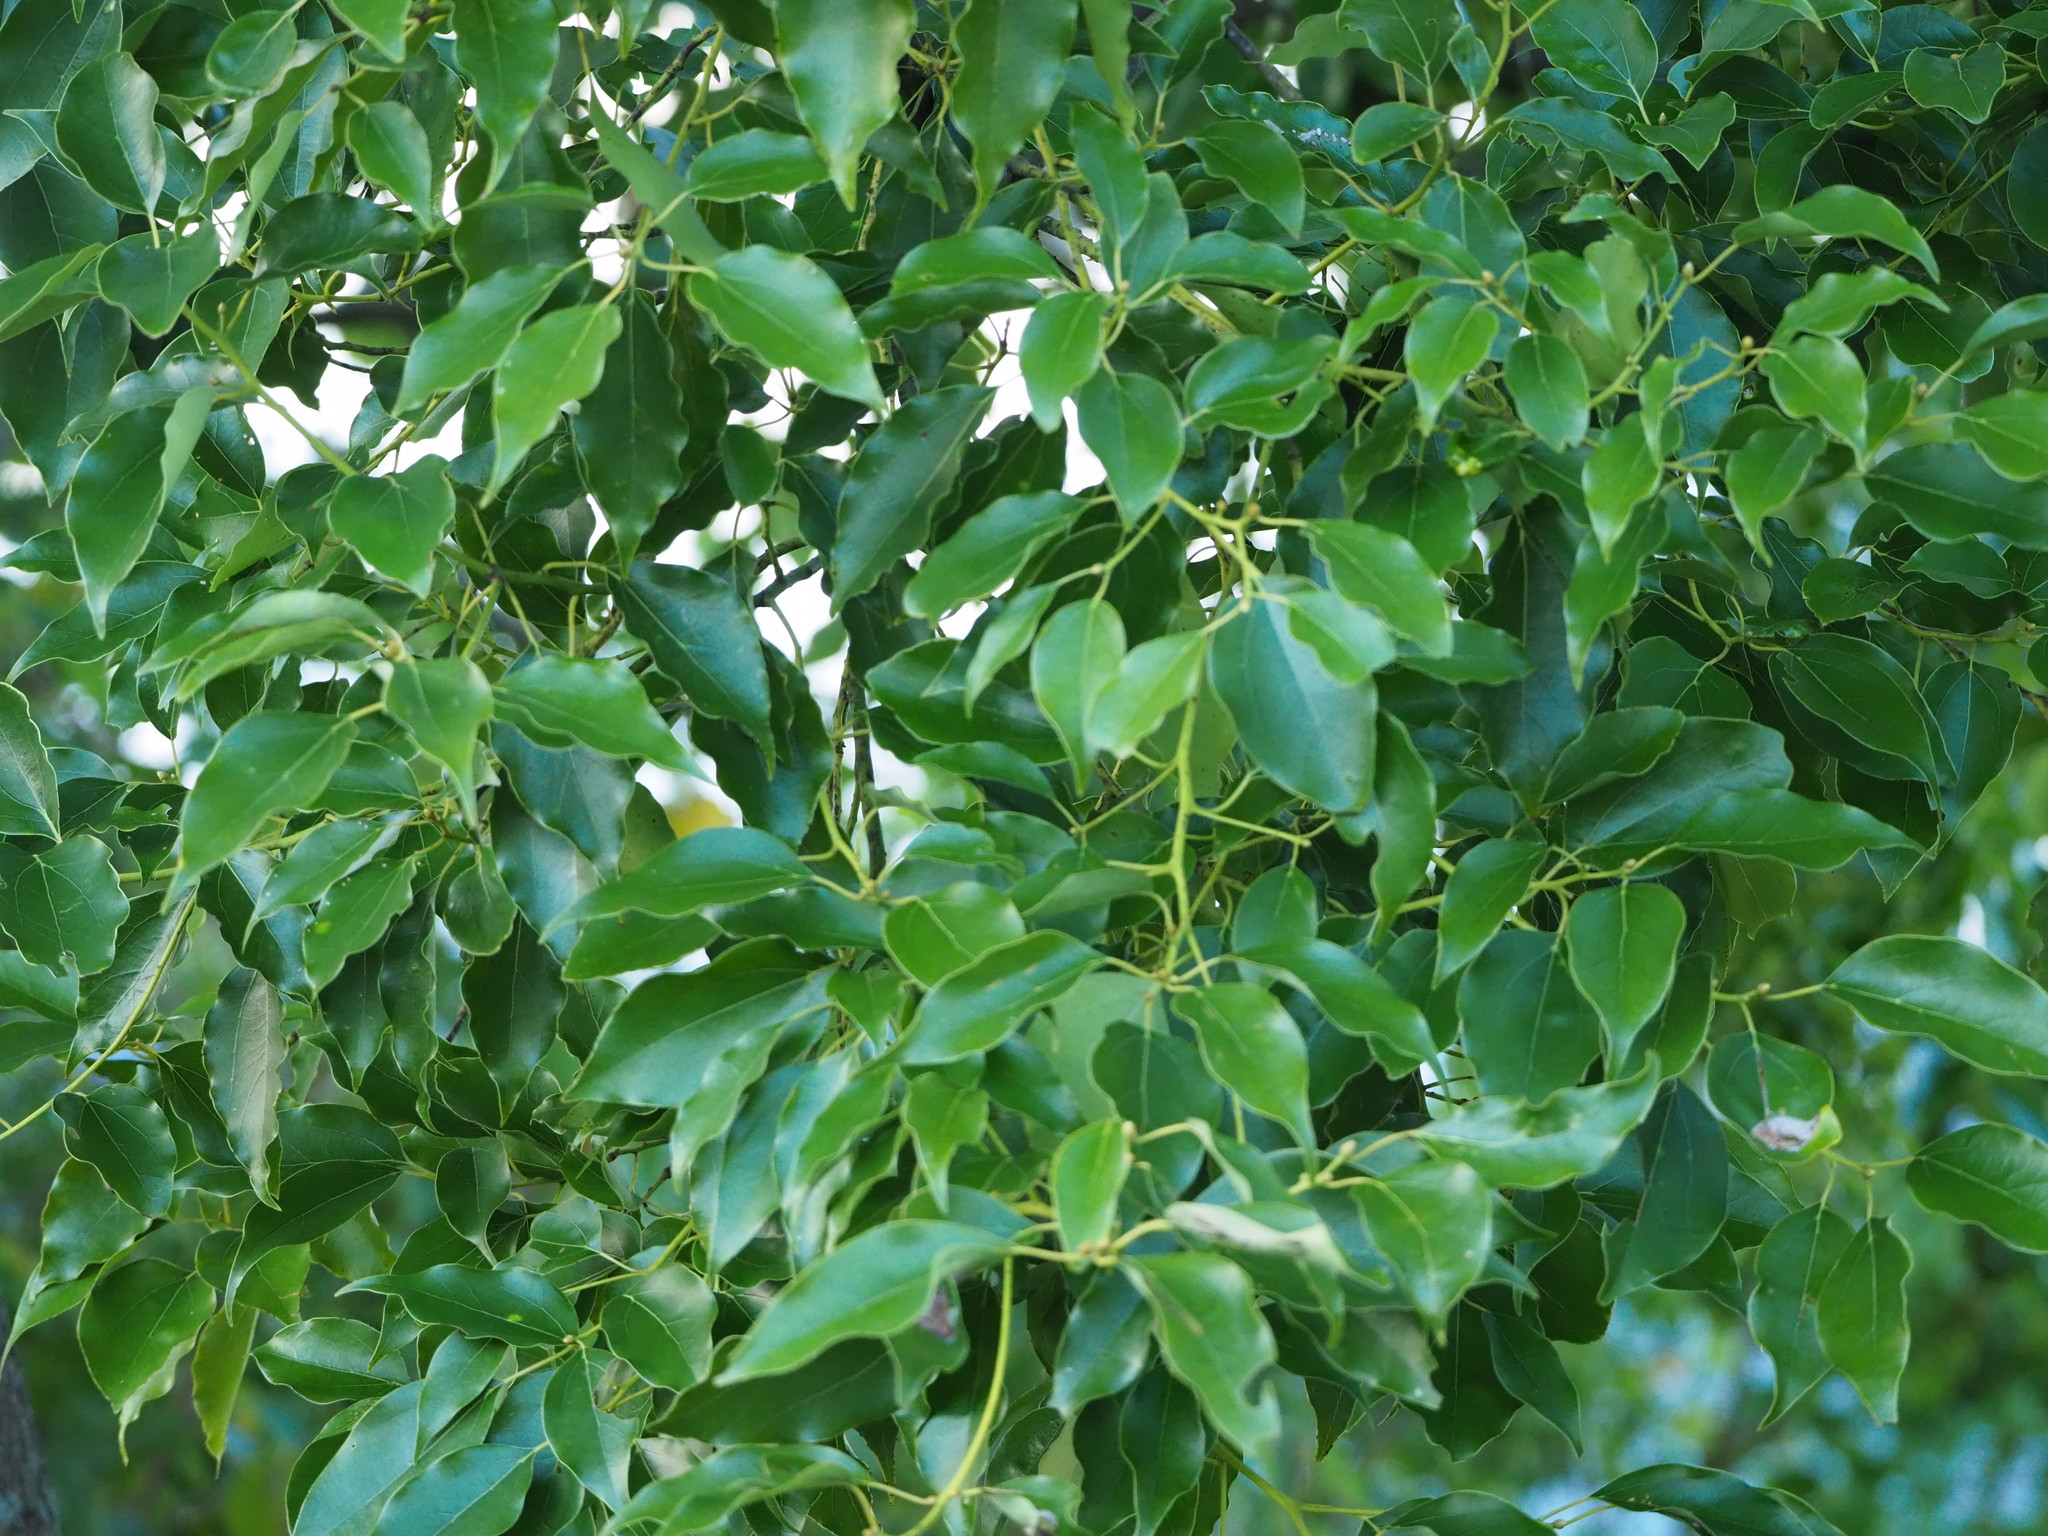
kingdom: Plantae
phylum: Tracheophyta
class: Magnoliopsida
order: Laurales
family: Lauraceae
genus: Cinnamomum
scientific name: Cinnamomum camphora
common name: Camphortree
